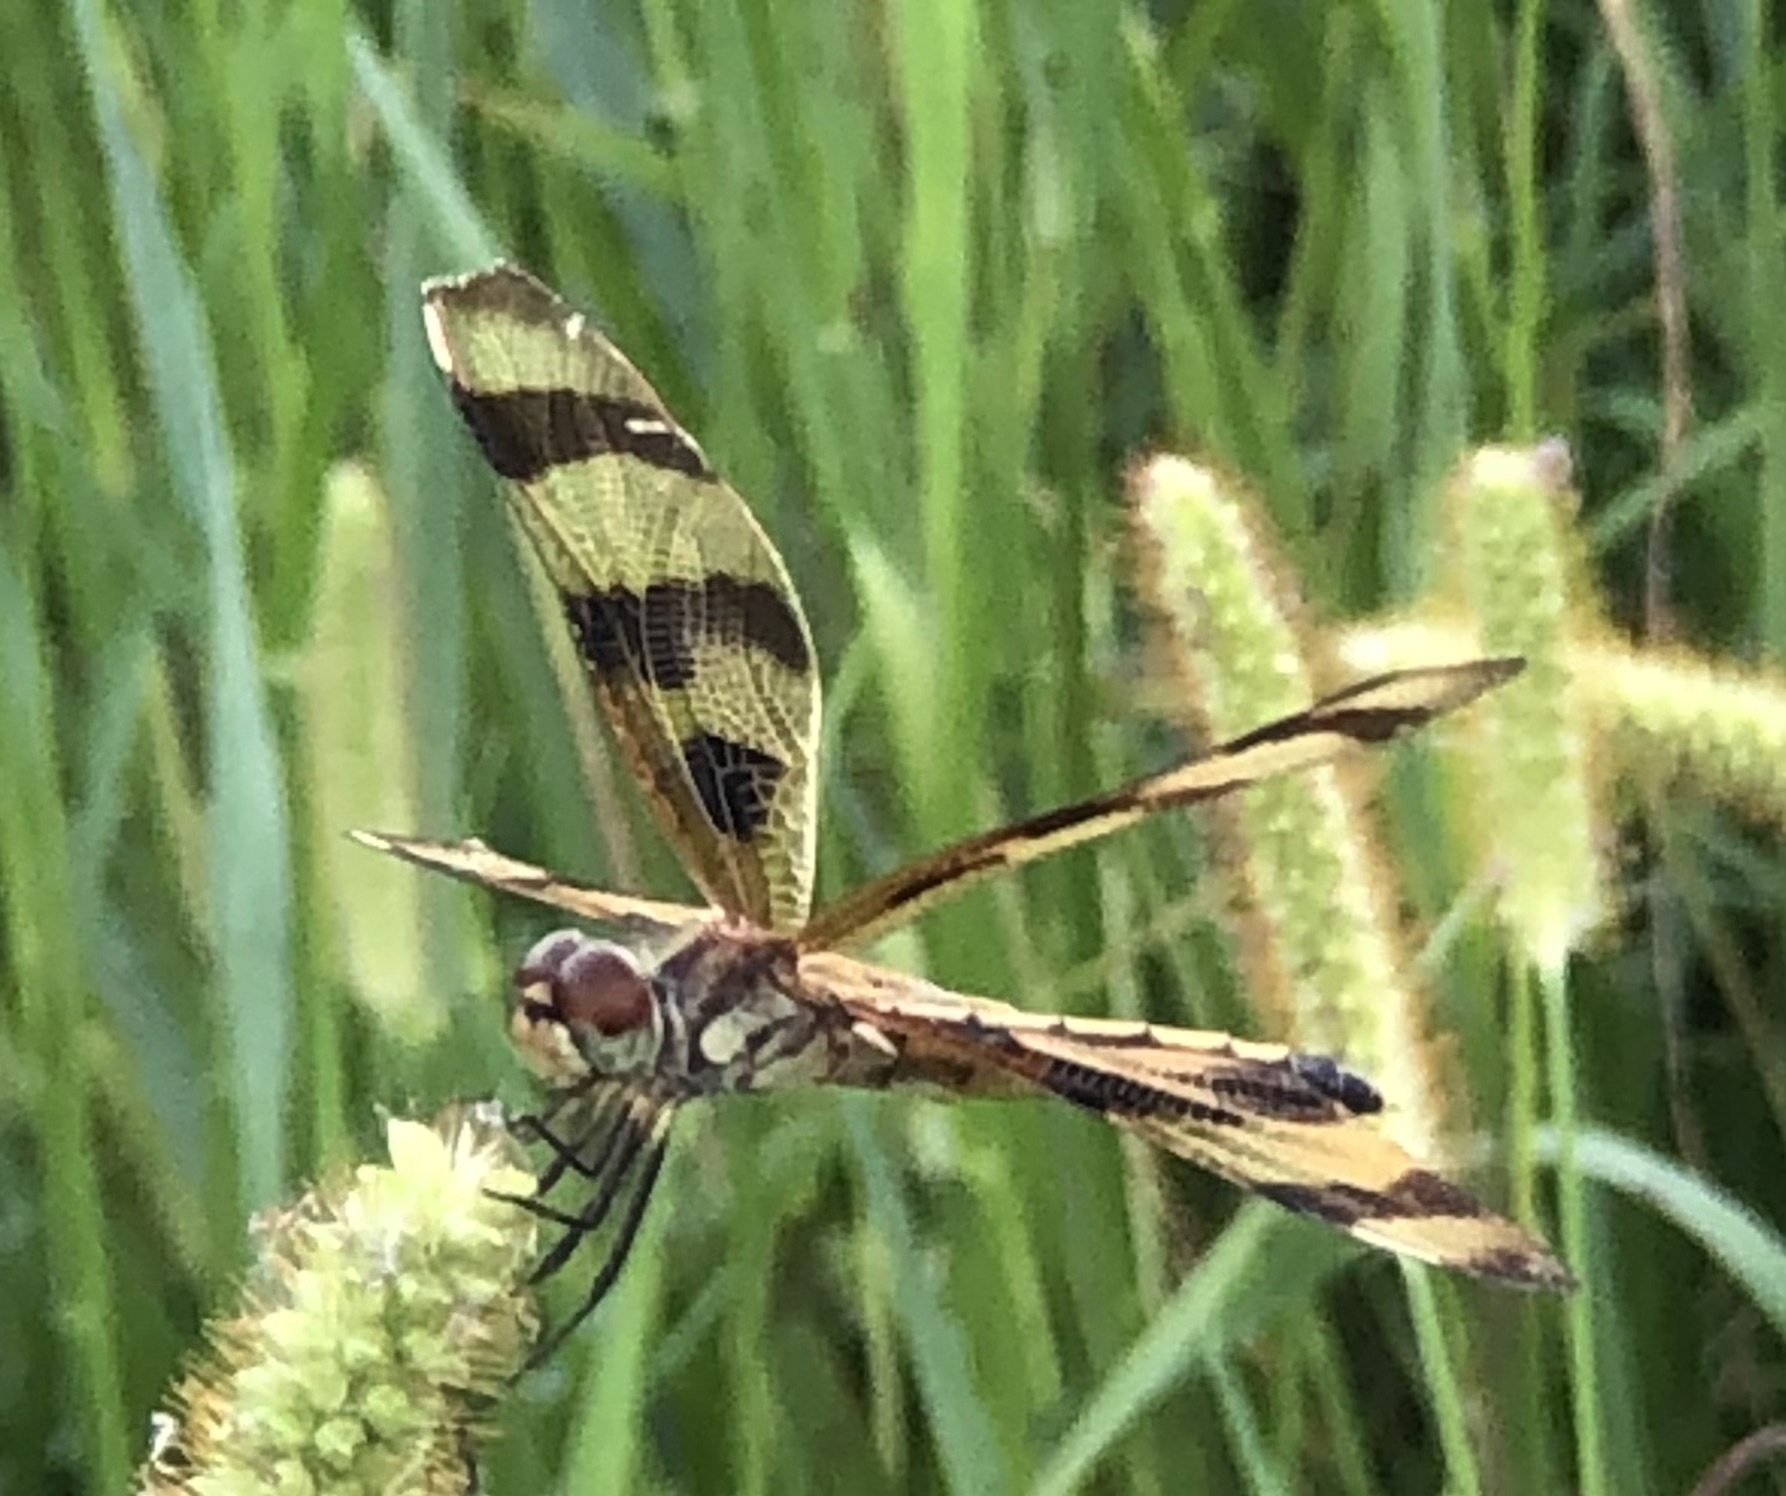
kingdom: Animalia
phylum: Arthropoda
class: Insecta
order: Odonata
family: Libellulidae
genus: Celithemis
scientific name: Celithemis eponina
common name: Halloween pennant
